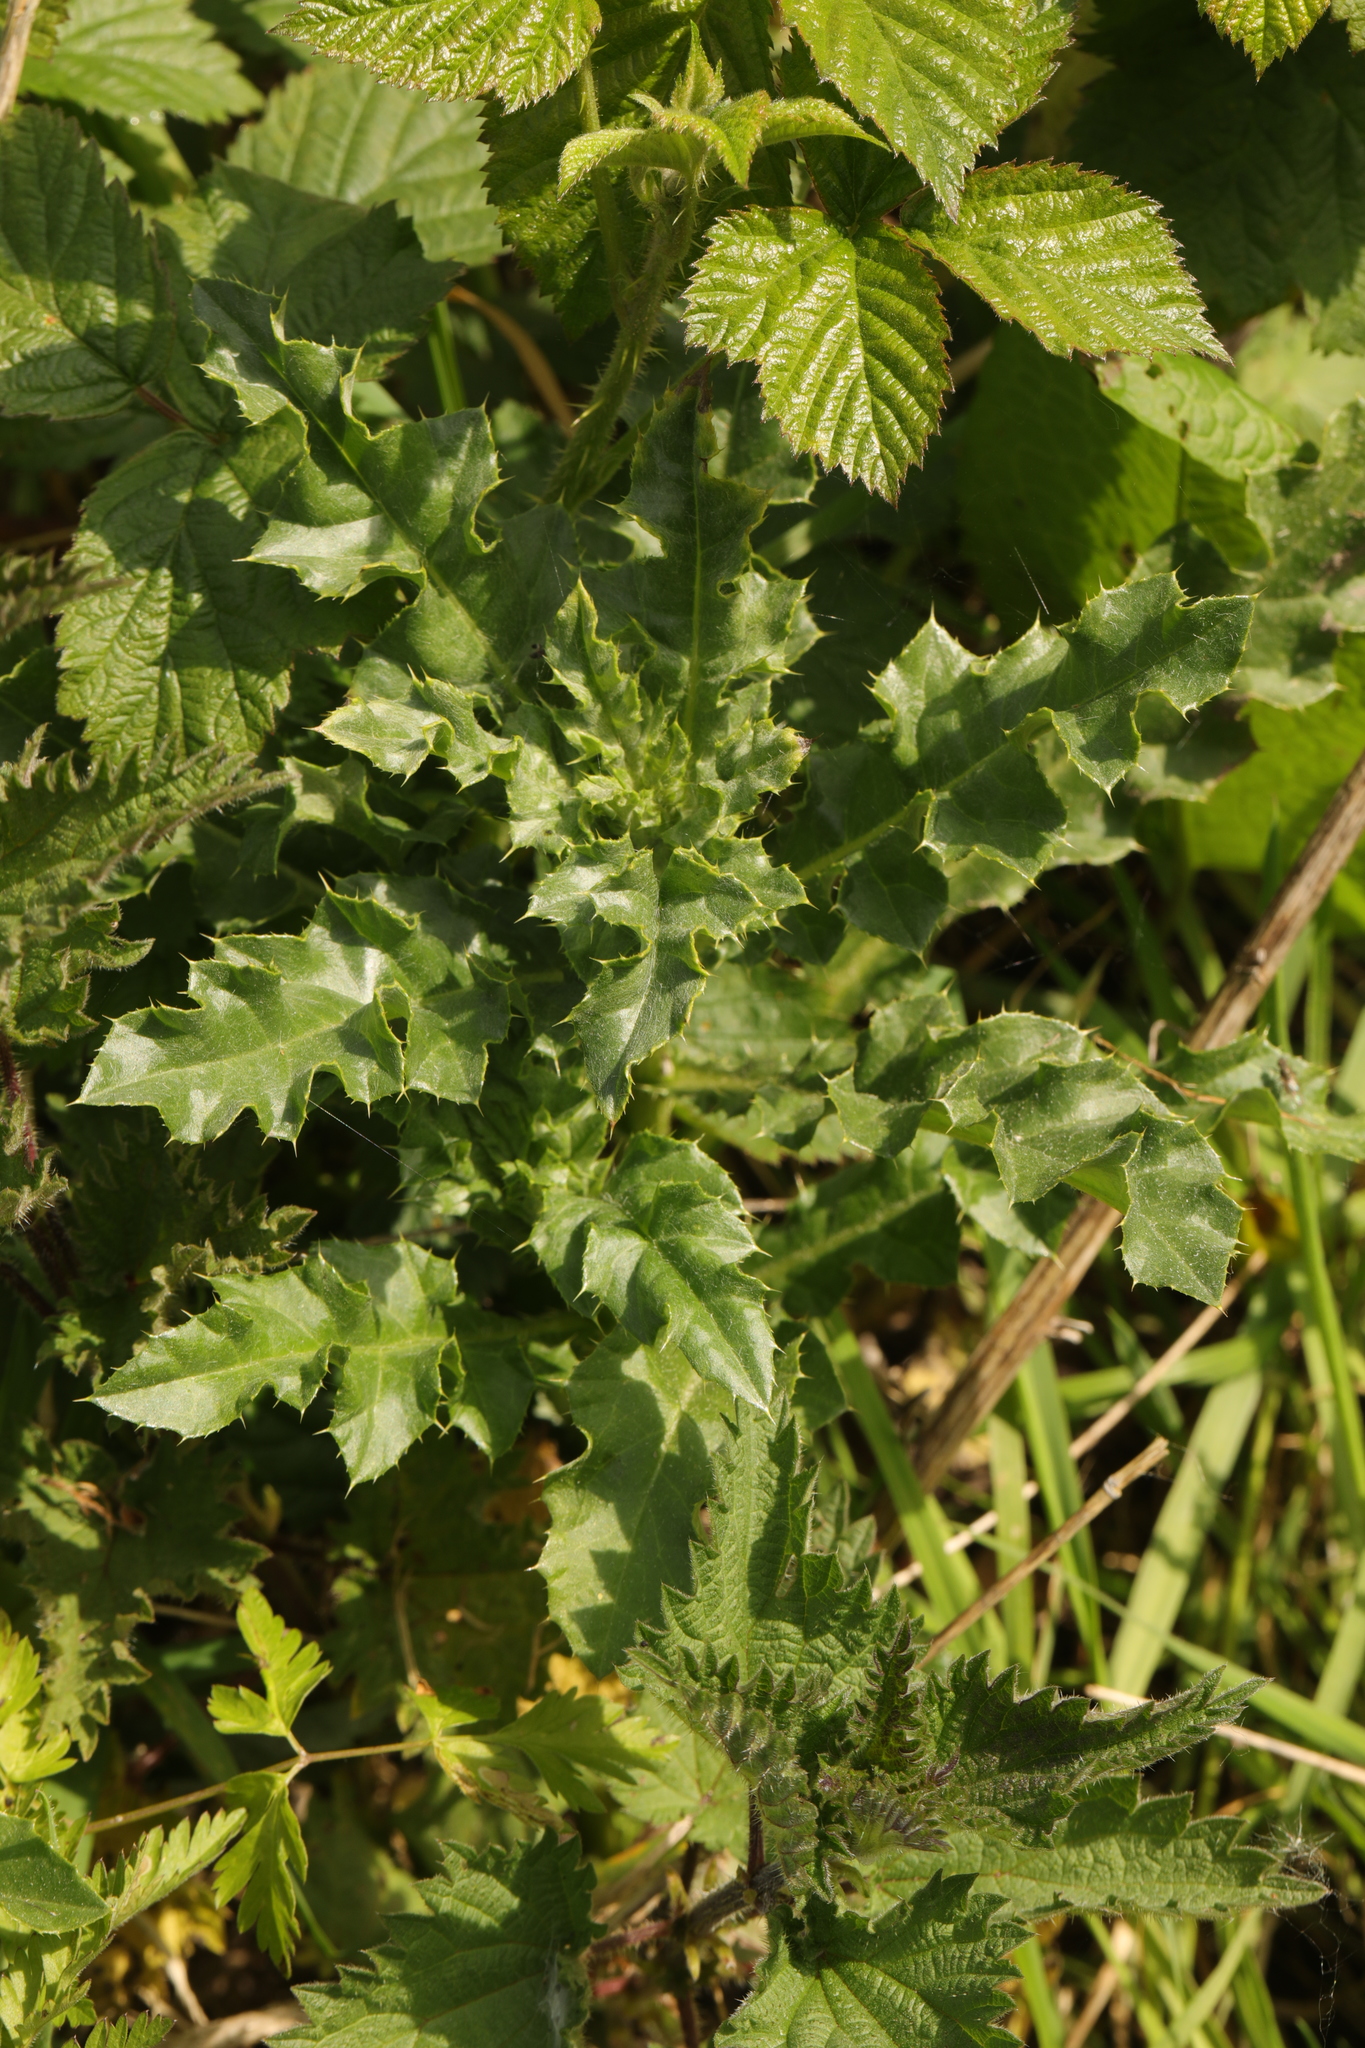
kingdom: Plantae
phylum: Tracheophyta
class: Magnoliopsida
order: Asterales
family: Asteraceae
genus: Cirsium
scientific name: Cirsium arvense
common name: Creeping thistle
